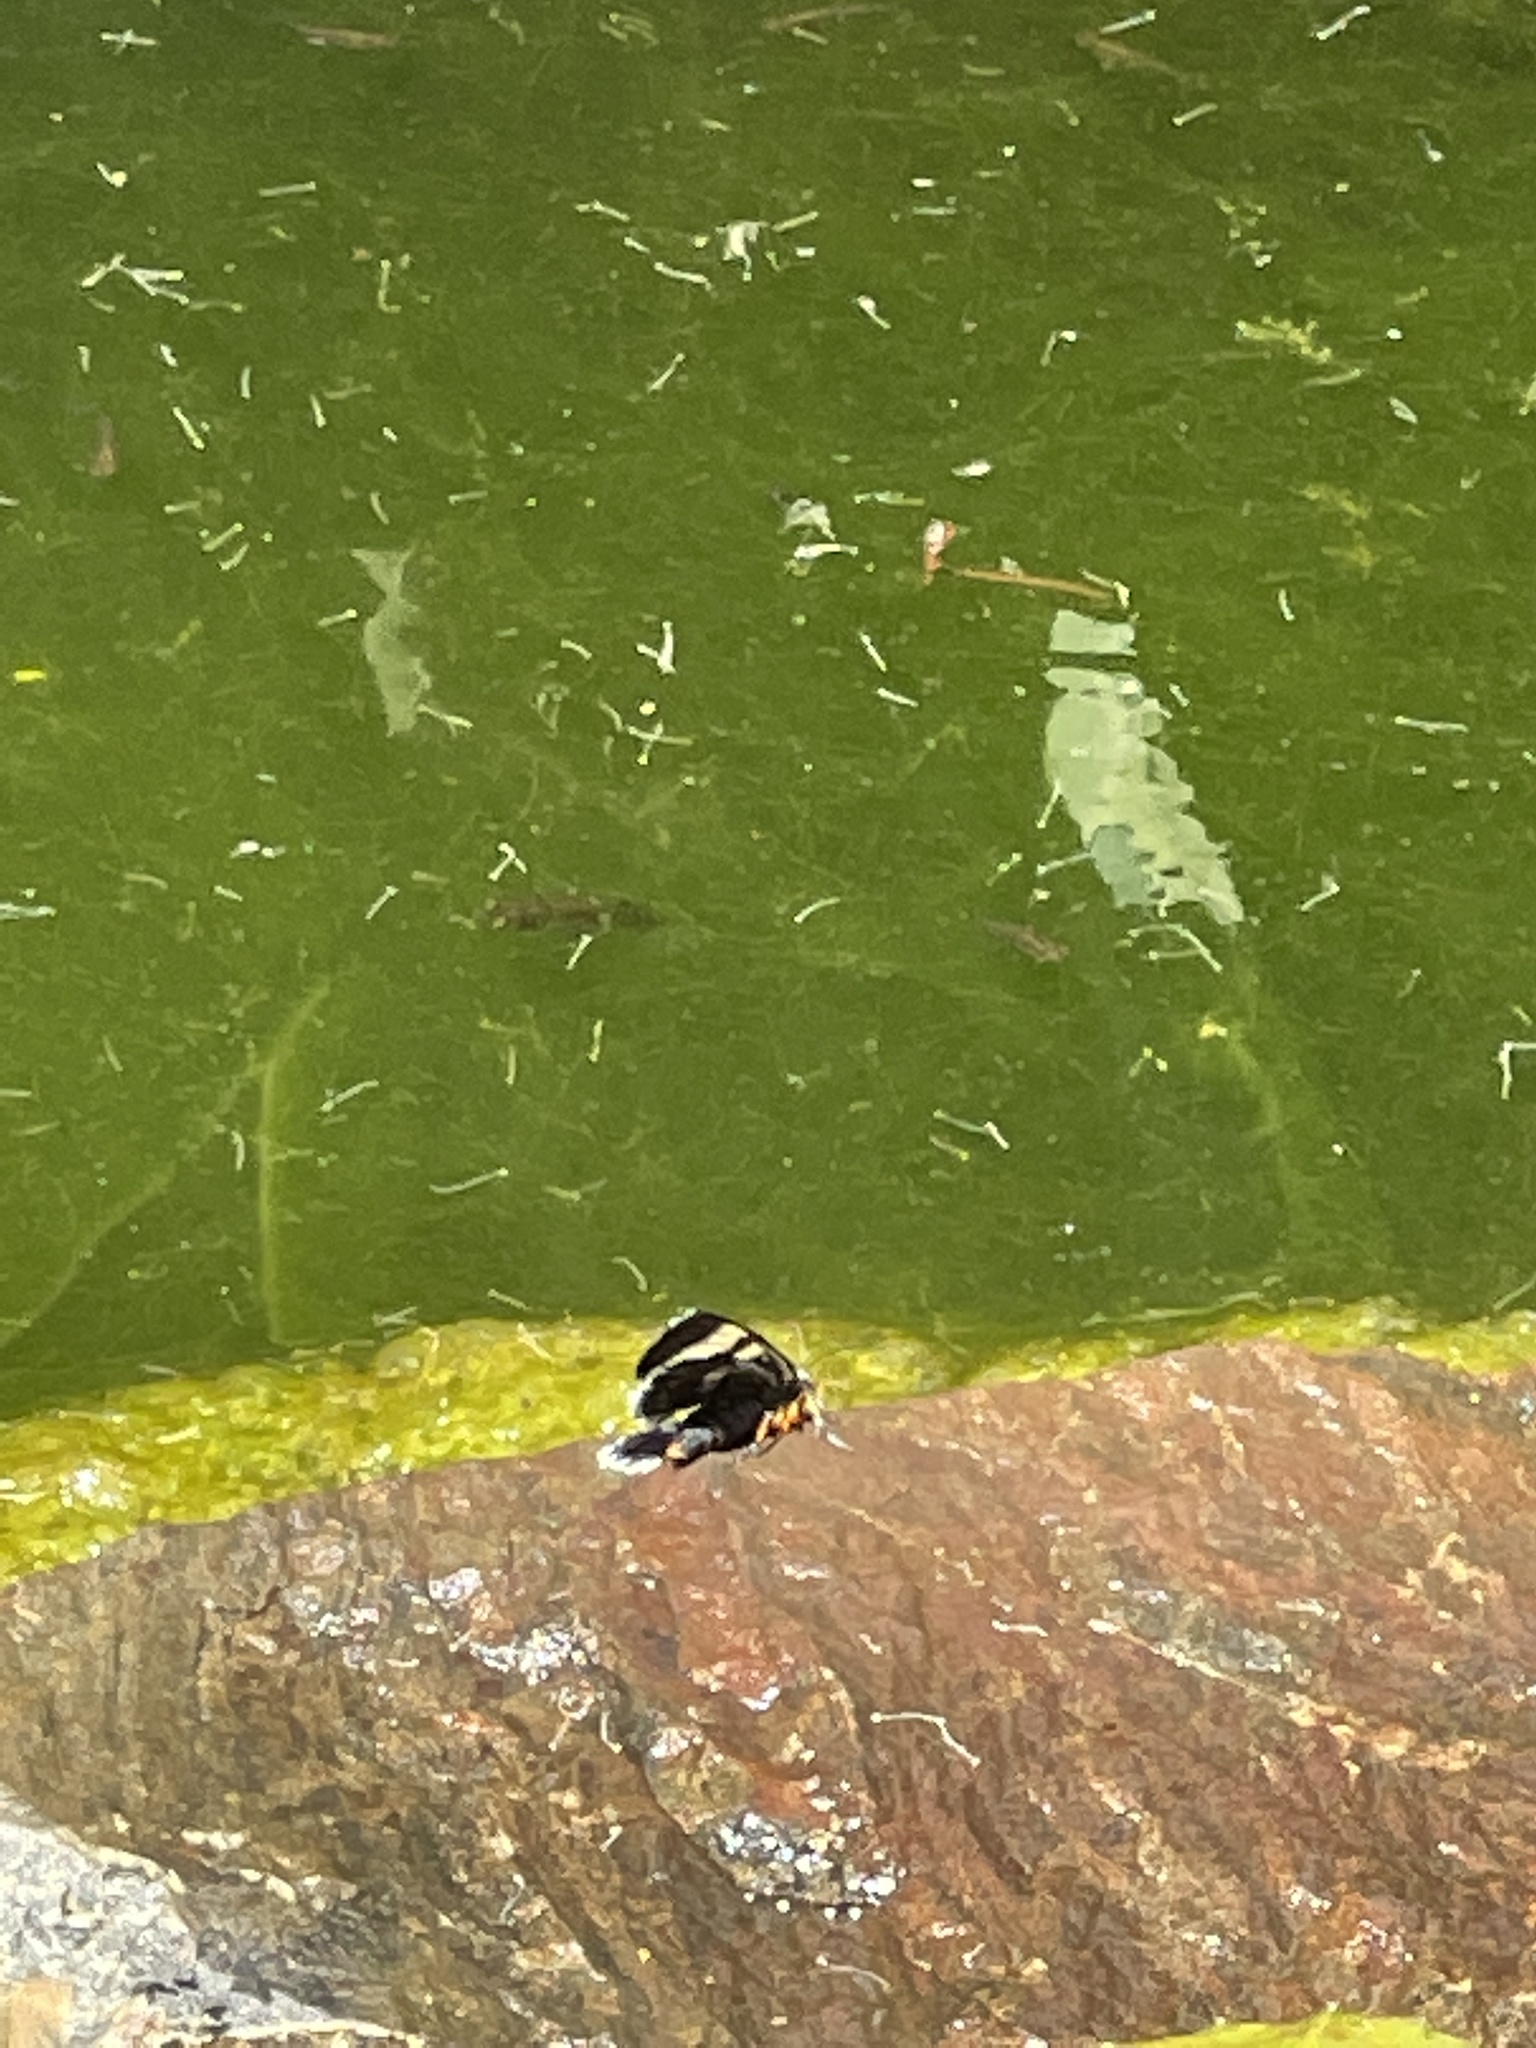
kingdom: Animalia
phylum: Arthropoda
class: Insecta
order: Lepidoptera
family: Noctuidae
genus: Phalaenoides
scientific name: Phalaenoides glycinae
